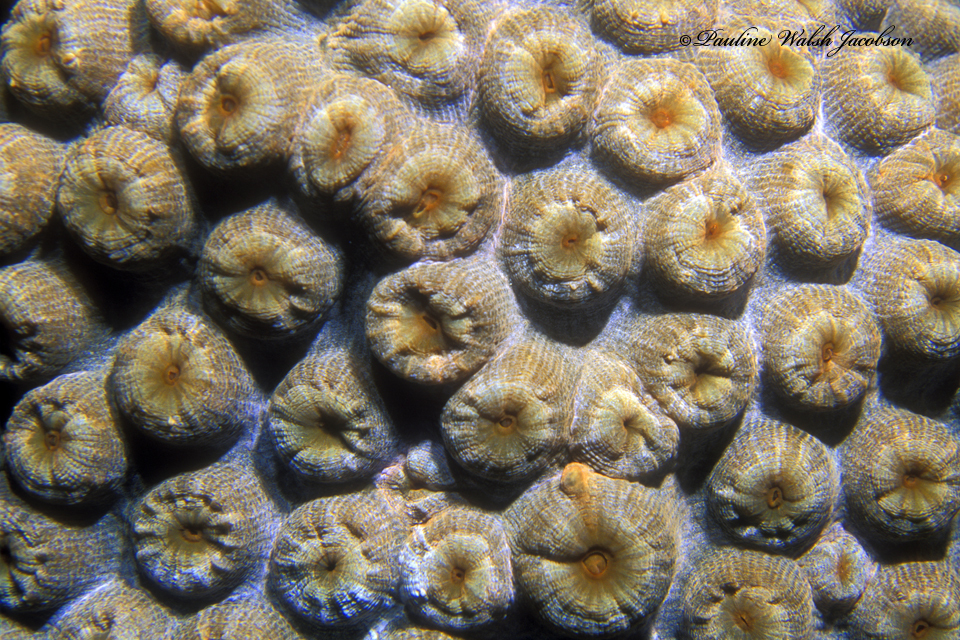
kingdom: Animalia
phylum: Cnidaria
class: Anthozoa
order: Scleractinia
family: Montastraeidae
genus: Montastraea
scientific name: Montastraea cavernosa
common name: Great star coral
